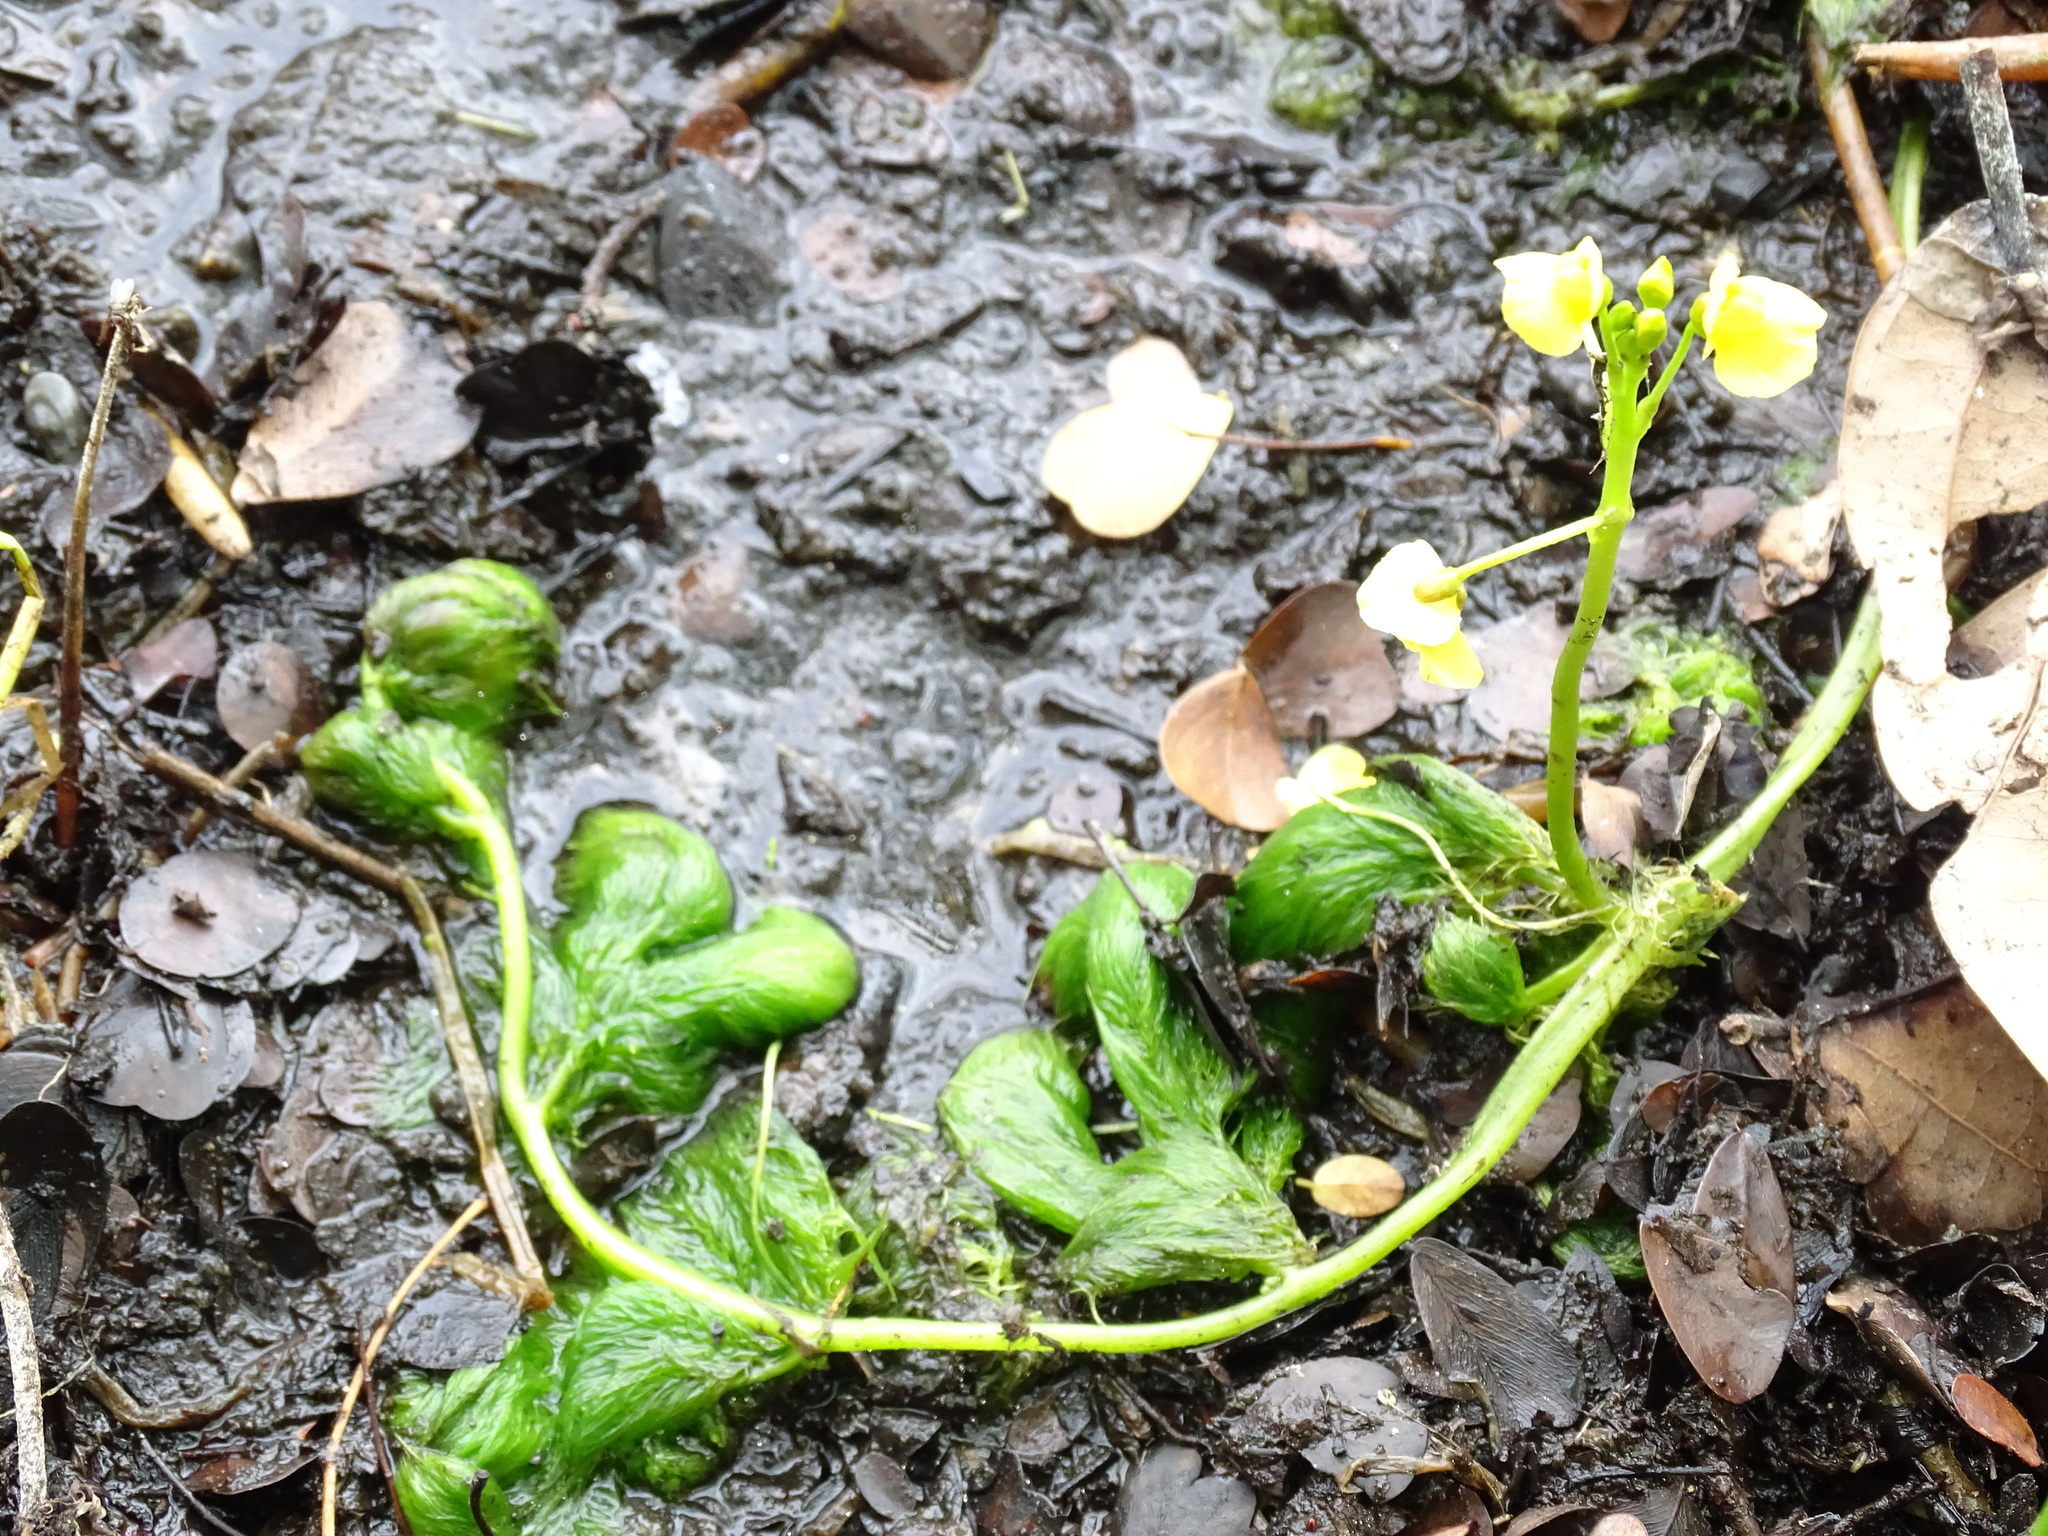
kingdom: Plantae
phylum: Tracheophyta
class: Magnoliopsida
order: Lamiales
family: Lentibulariaceae
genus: Utricularia
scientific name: Utricularia foliosa
